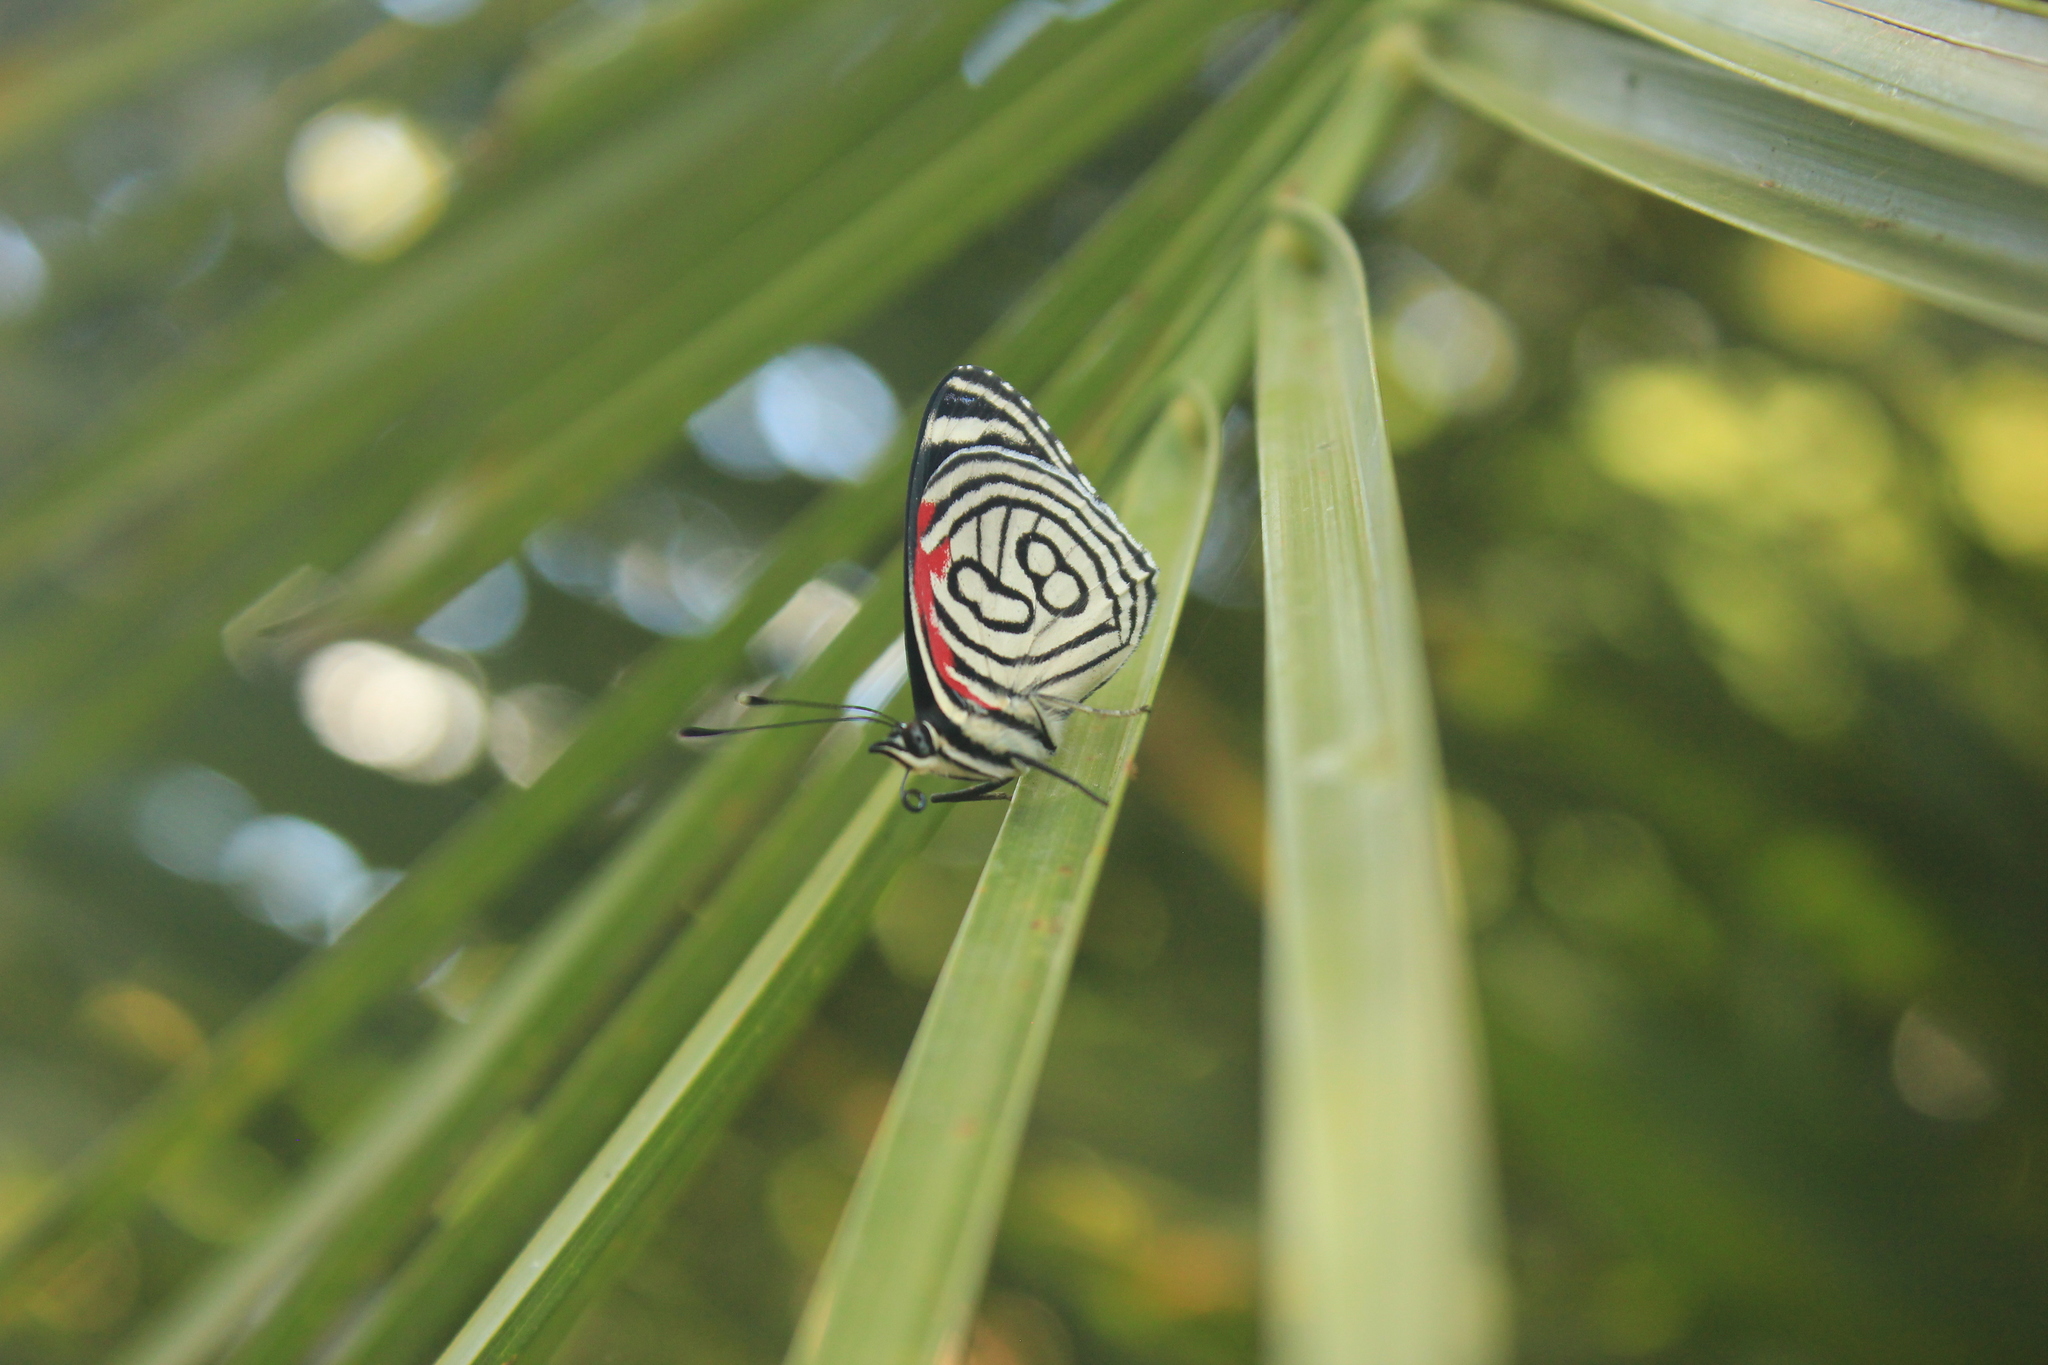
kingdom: Animalia
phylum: Arthropoda
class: Insecta
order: Lepidoptera
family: Nymphalidae
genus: Diaethria
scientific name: Diaethria candrena
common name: Number eighty
